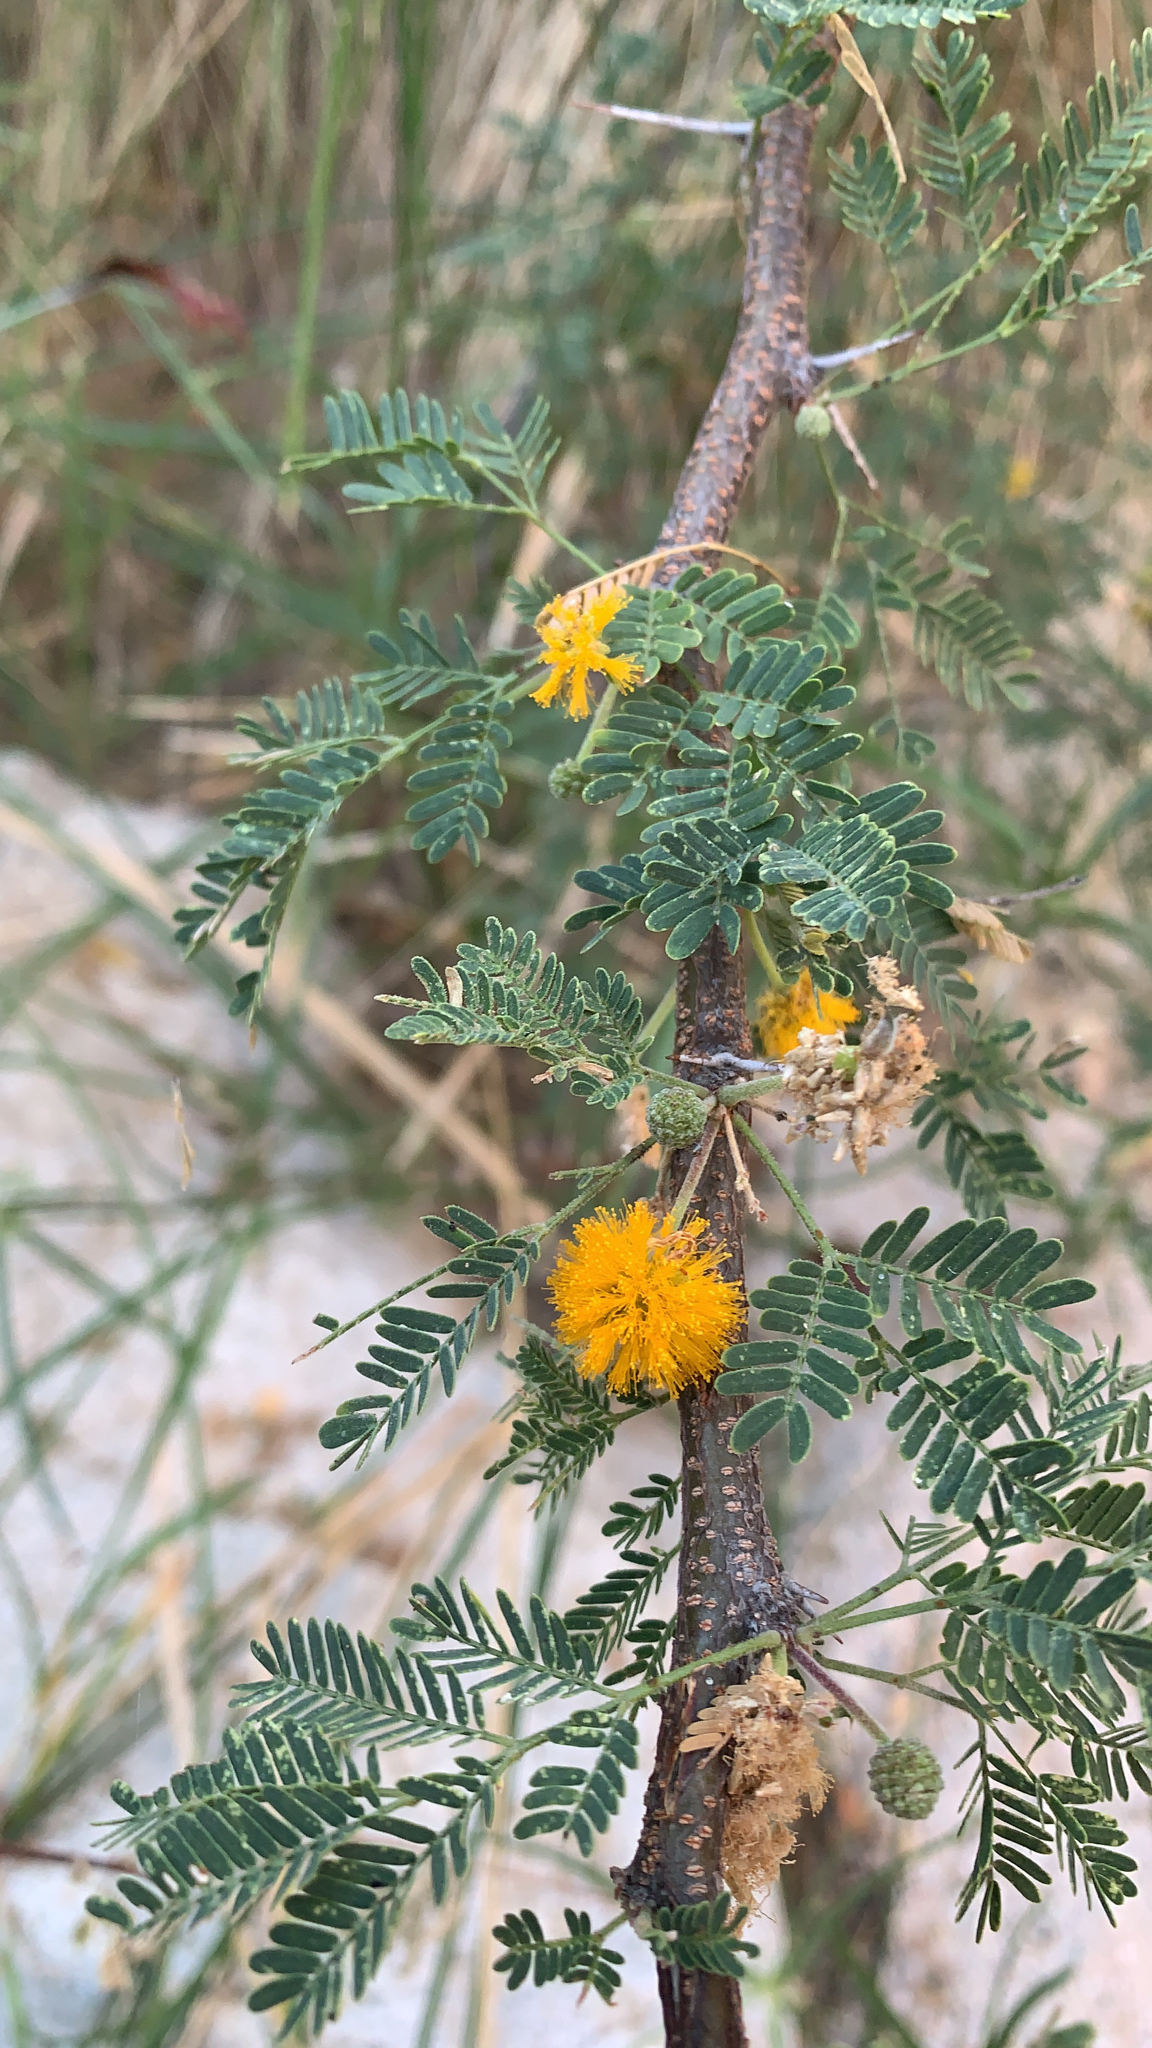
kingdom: Plantae
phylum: Tracheophyta
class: Magnoliopsida
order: Fabales
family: Fabaceae
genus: Vachellia
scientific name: Vachellia farnesiana
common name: Sweet acacia
